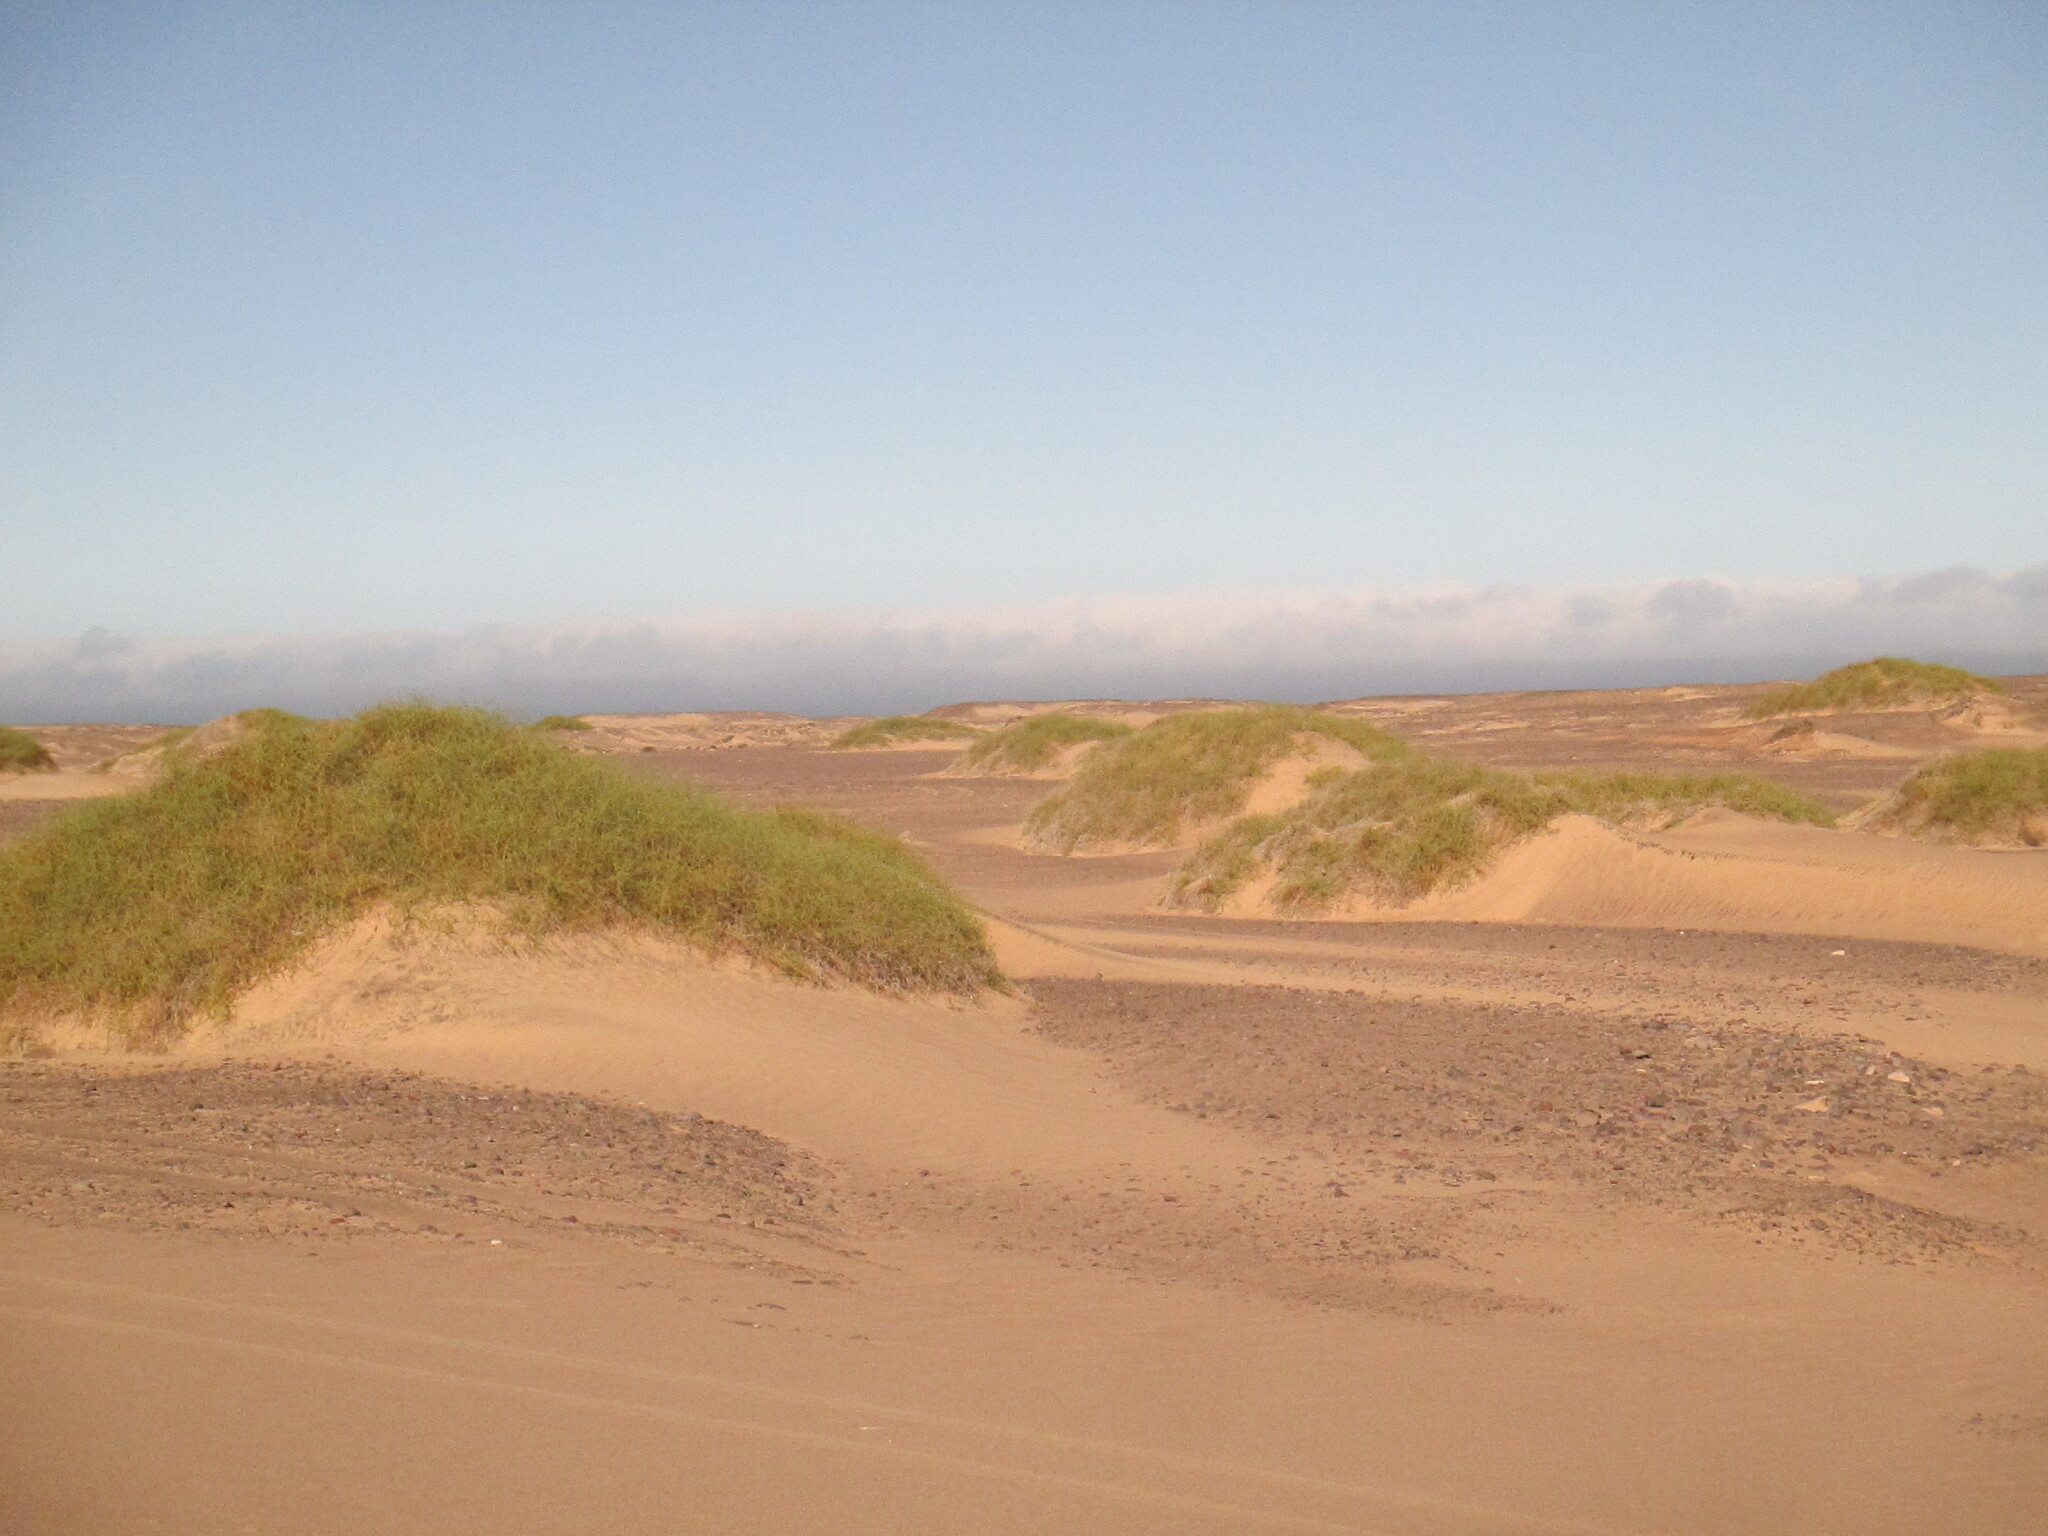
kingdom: Plantae
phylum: Tracheophyta
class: Magnoliopsida
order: Cucurbitales
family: Cucurbitaceae
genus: Acanthosicyos
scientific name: Acanthosicyos horridus
